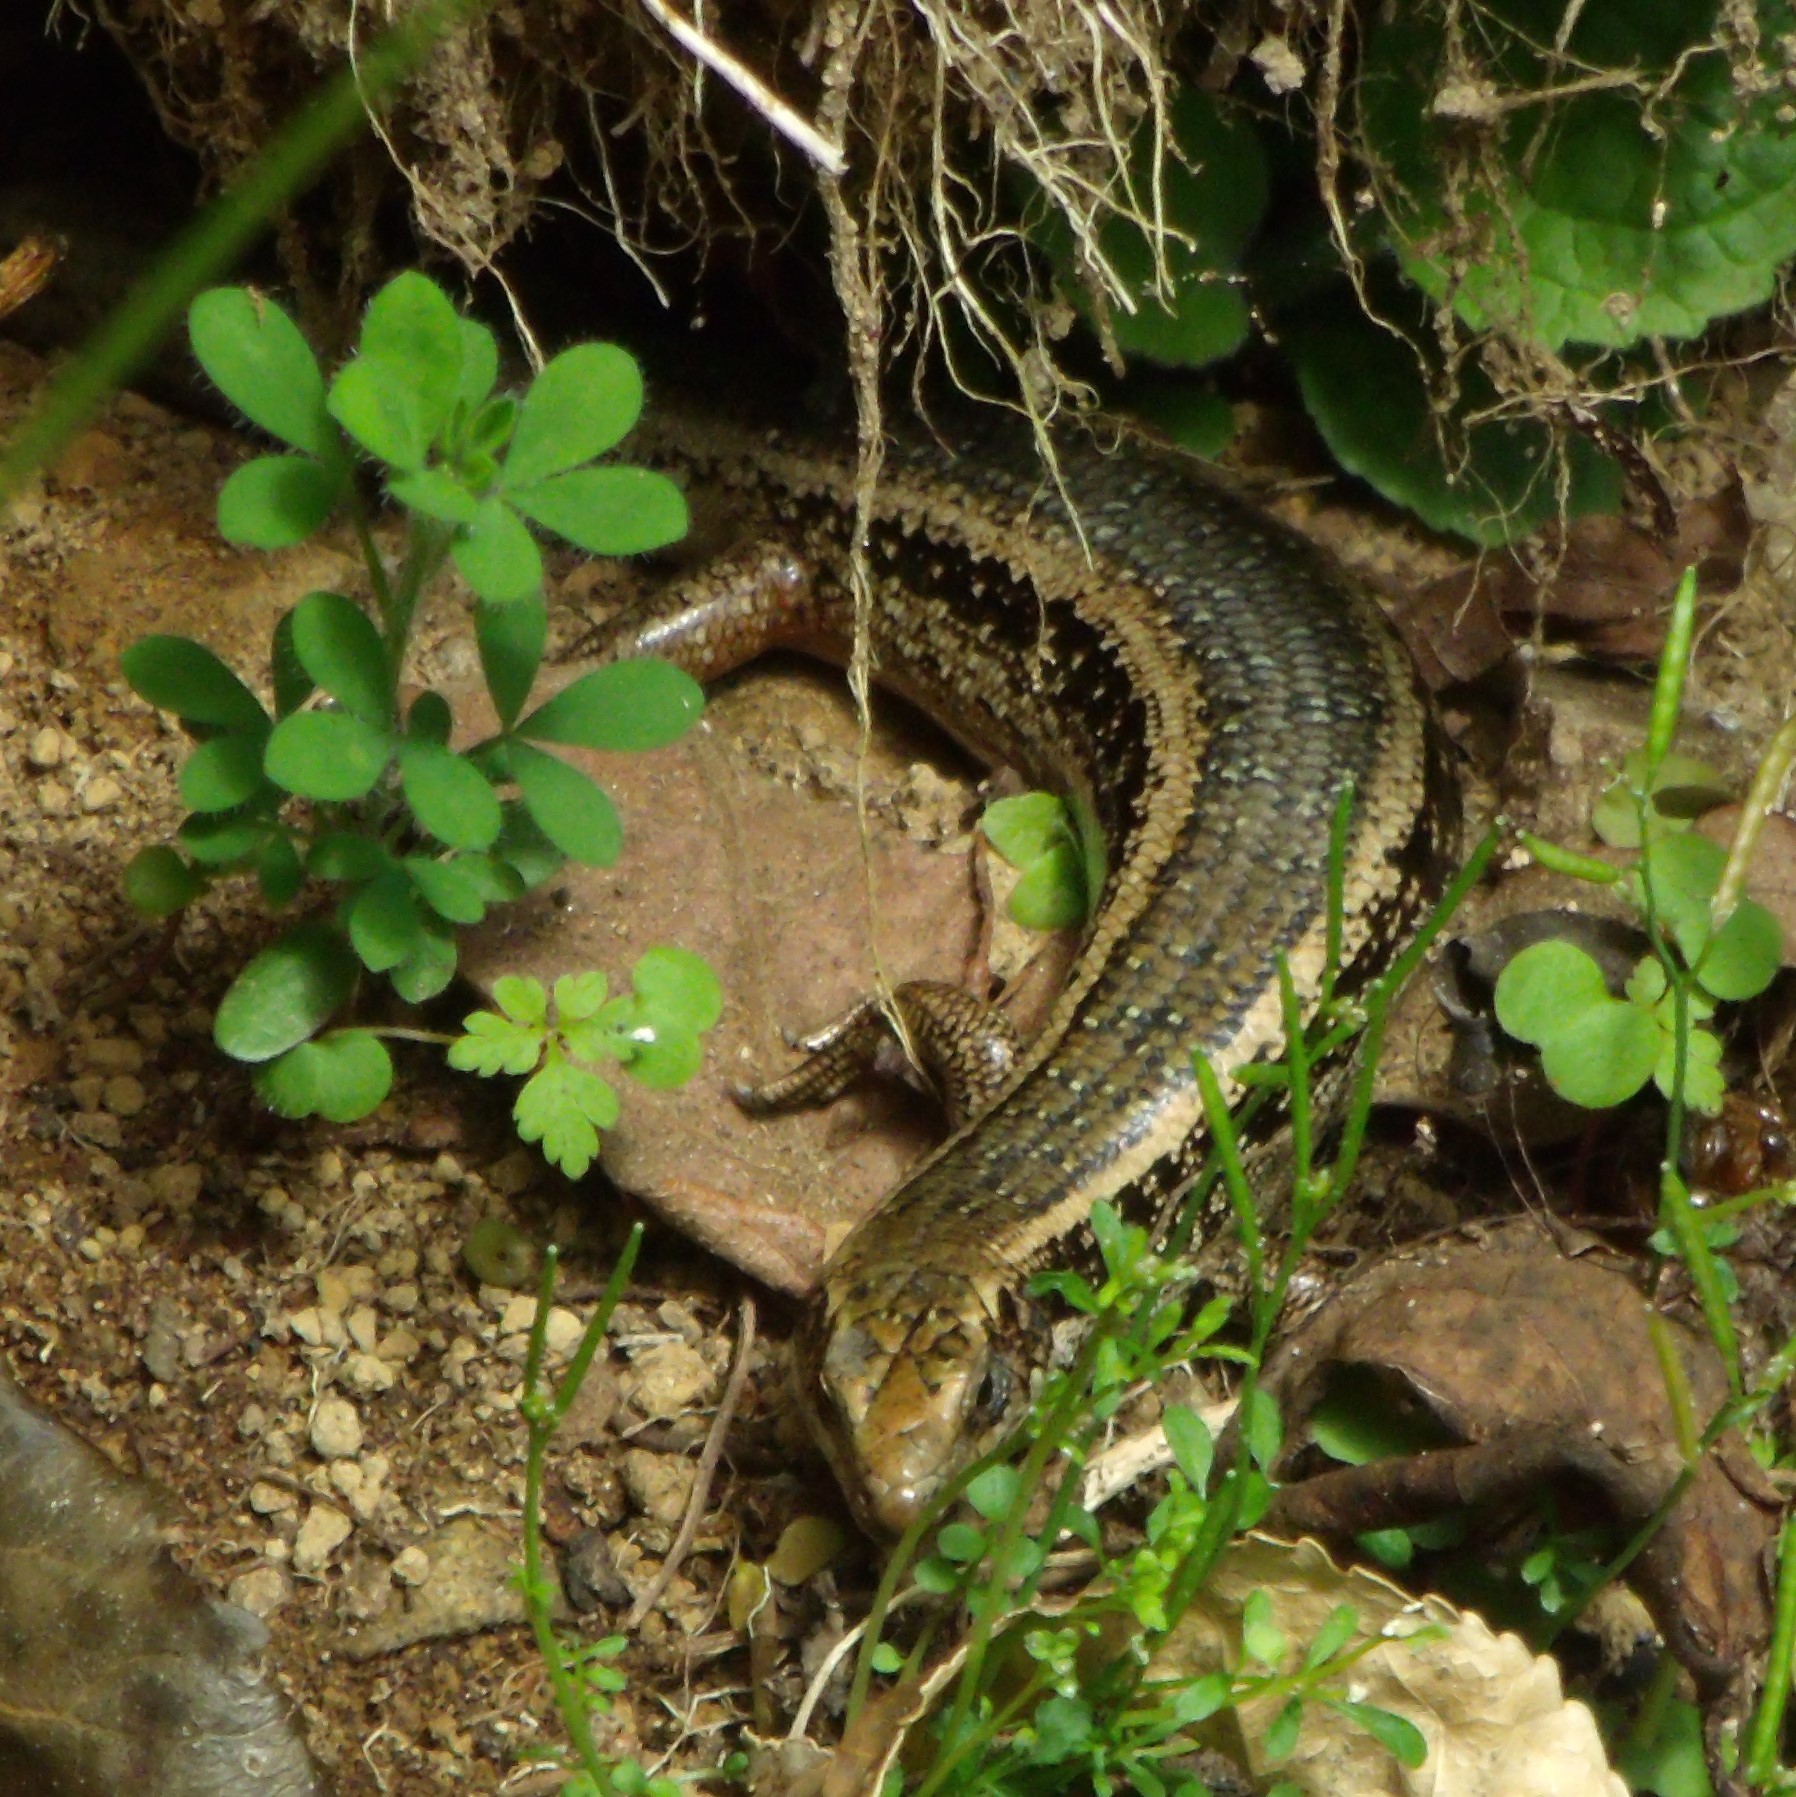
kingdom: Animalia
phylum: Chordata
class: Squamata
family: Scincidae
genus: Oligosoma
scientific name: Oligosoma kokowai
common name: Northern spotted skink
